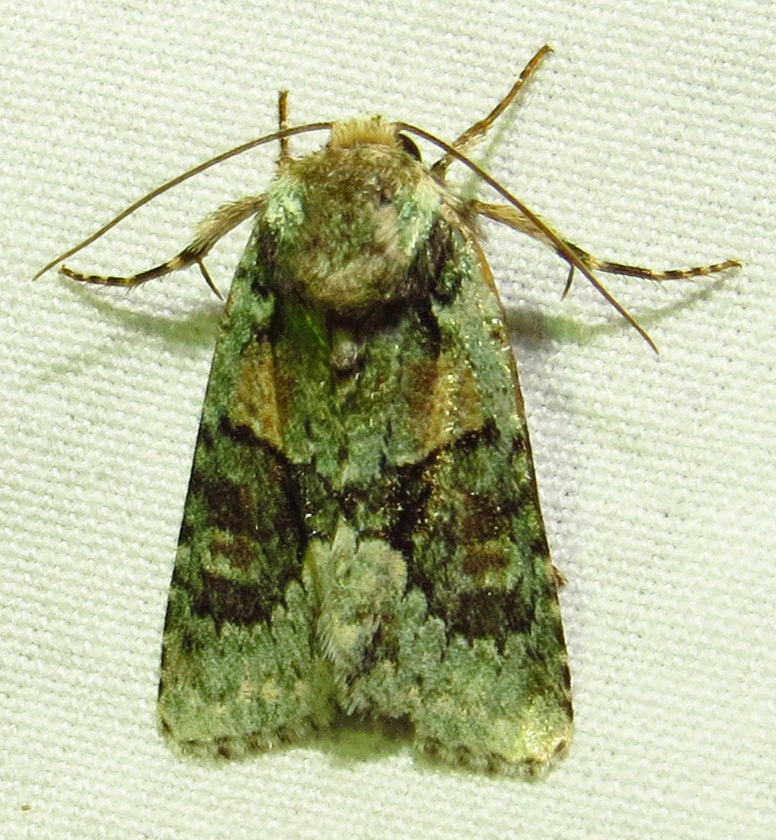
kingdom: Animalia
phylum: Arthropoda
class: Insecta
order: Lepidoptera
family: Noctuidae
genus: Lacinipolia
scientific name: Lacinipolia explicata
